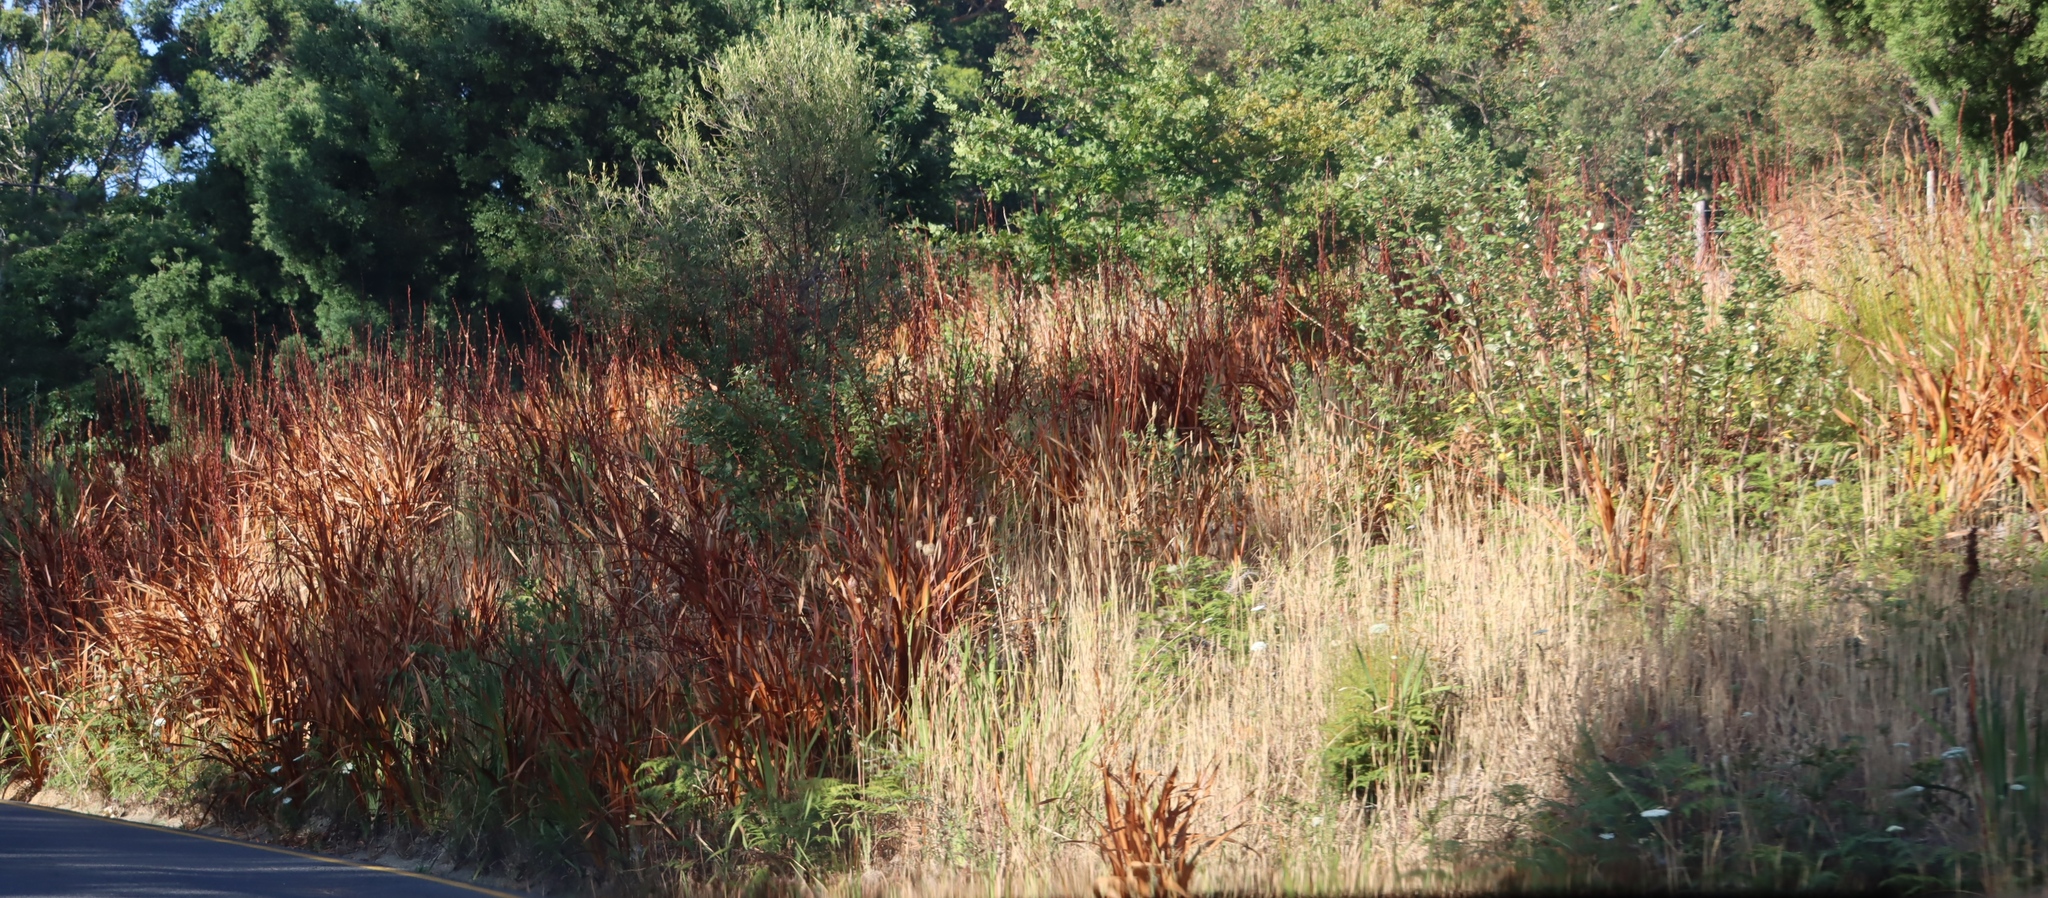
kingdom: Plantae
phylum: Tracheophyta
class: Magnoliopsida
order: Apiales
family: Apiaceae
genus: Daucus
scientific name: Daucus carota
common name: Wild carrot
